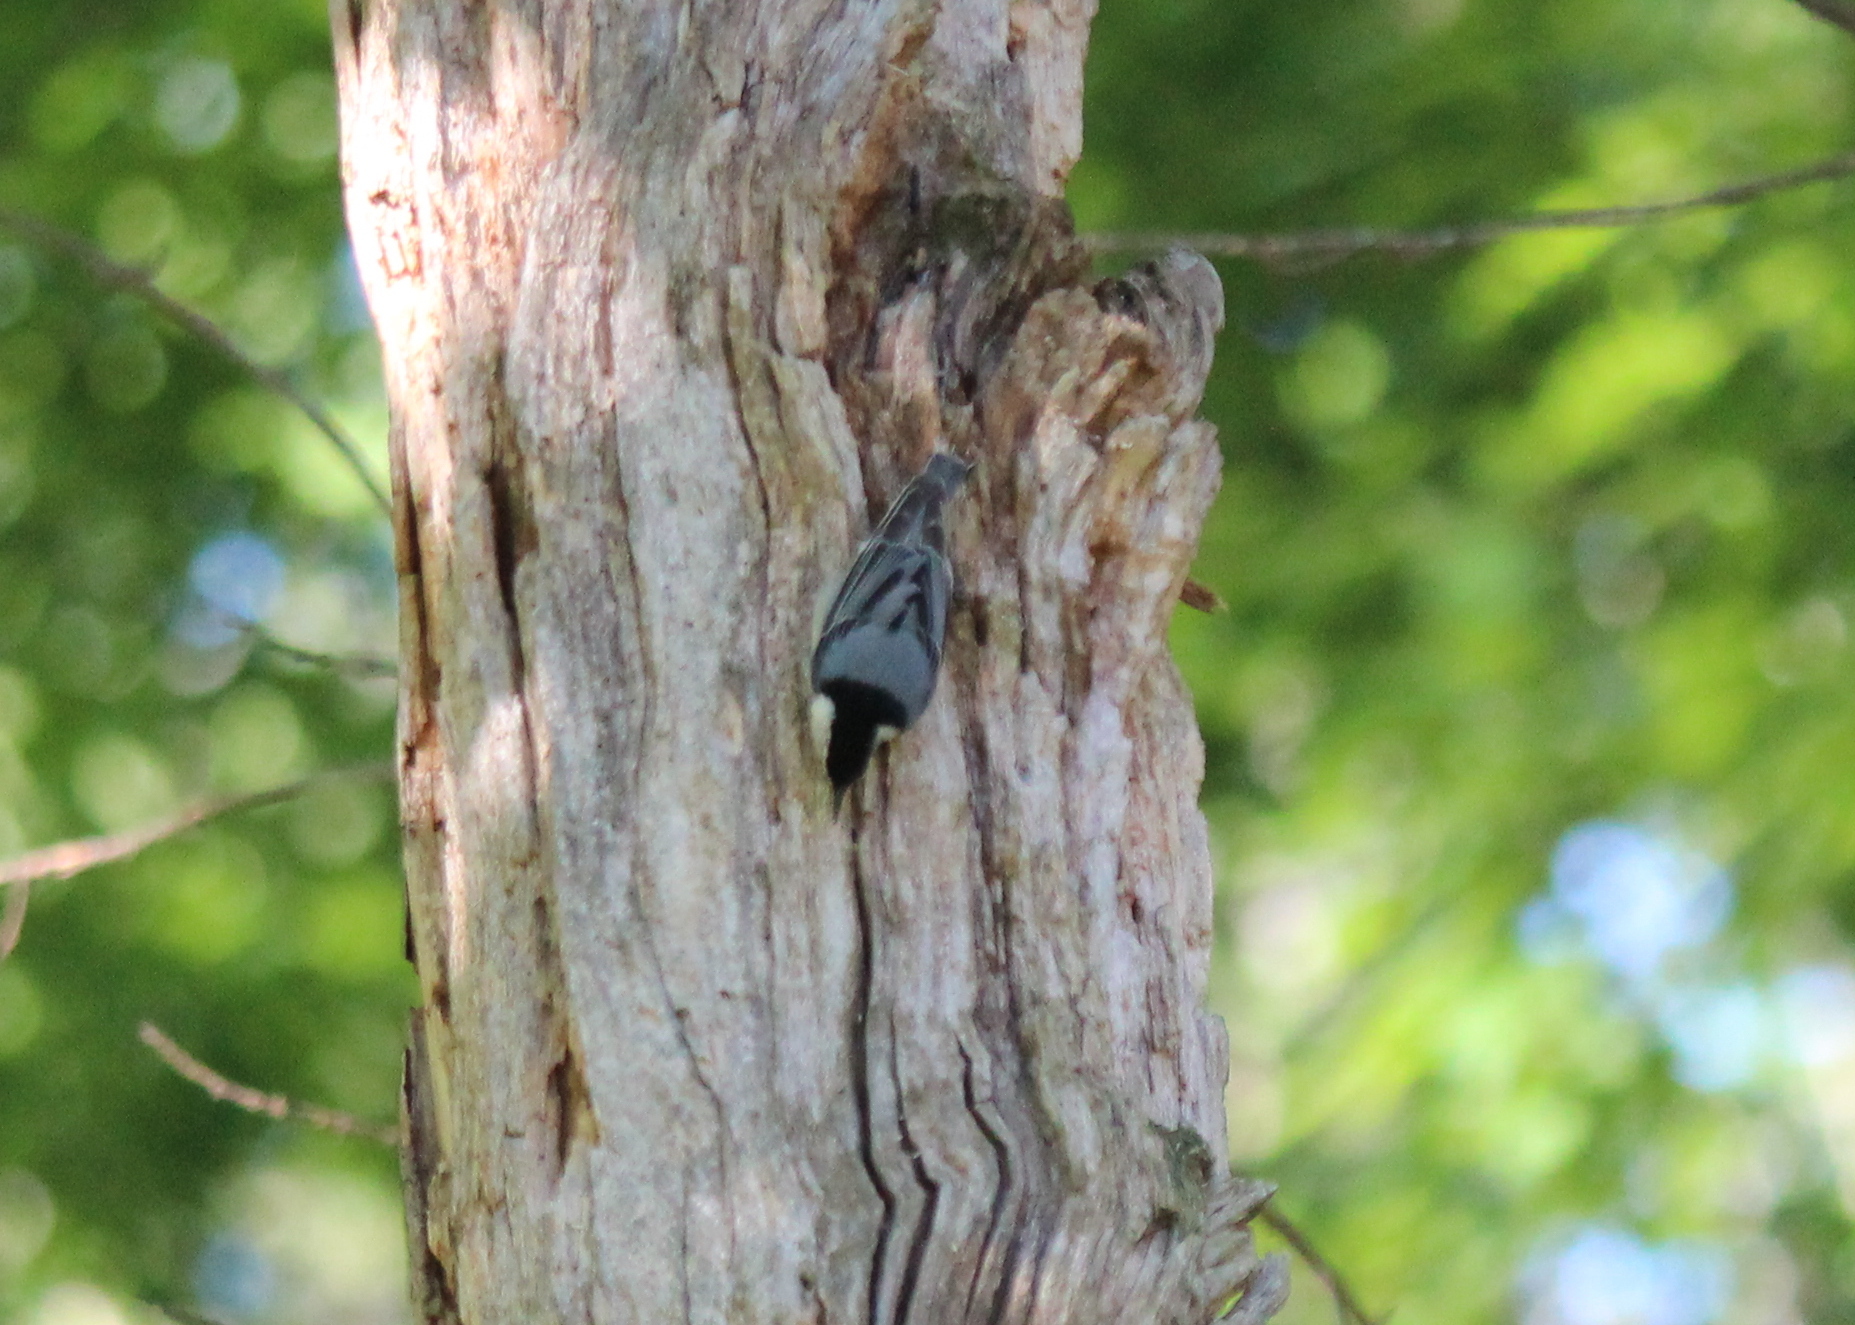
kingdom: Animalia
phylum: Chordata
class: Aves
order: Passeriformes
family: Sittidae
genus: Sitta
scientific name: Sitta carolinensis
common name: White-breasted nuthatch
